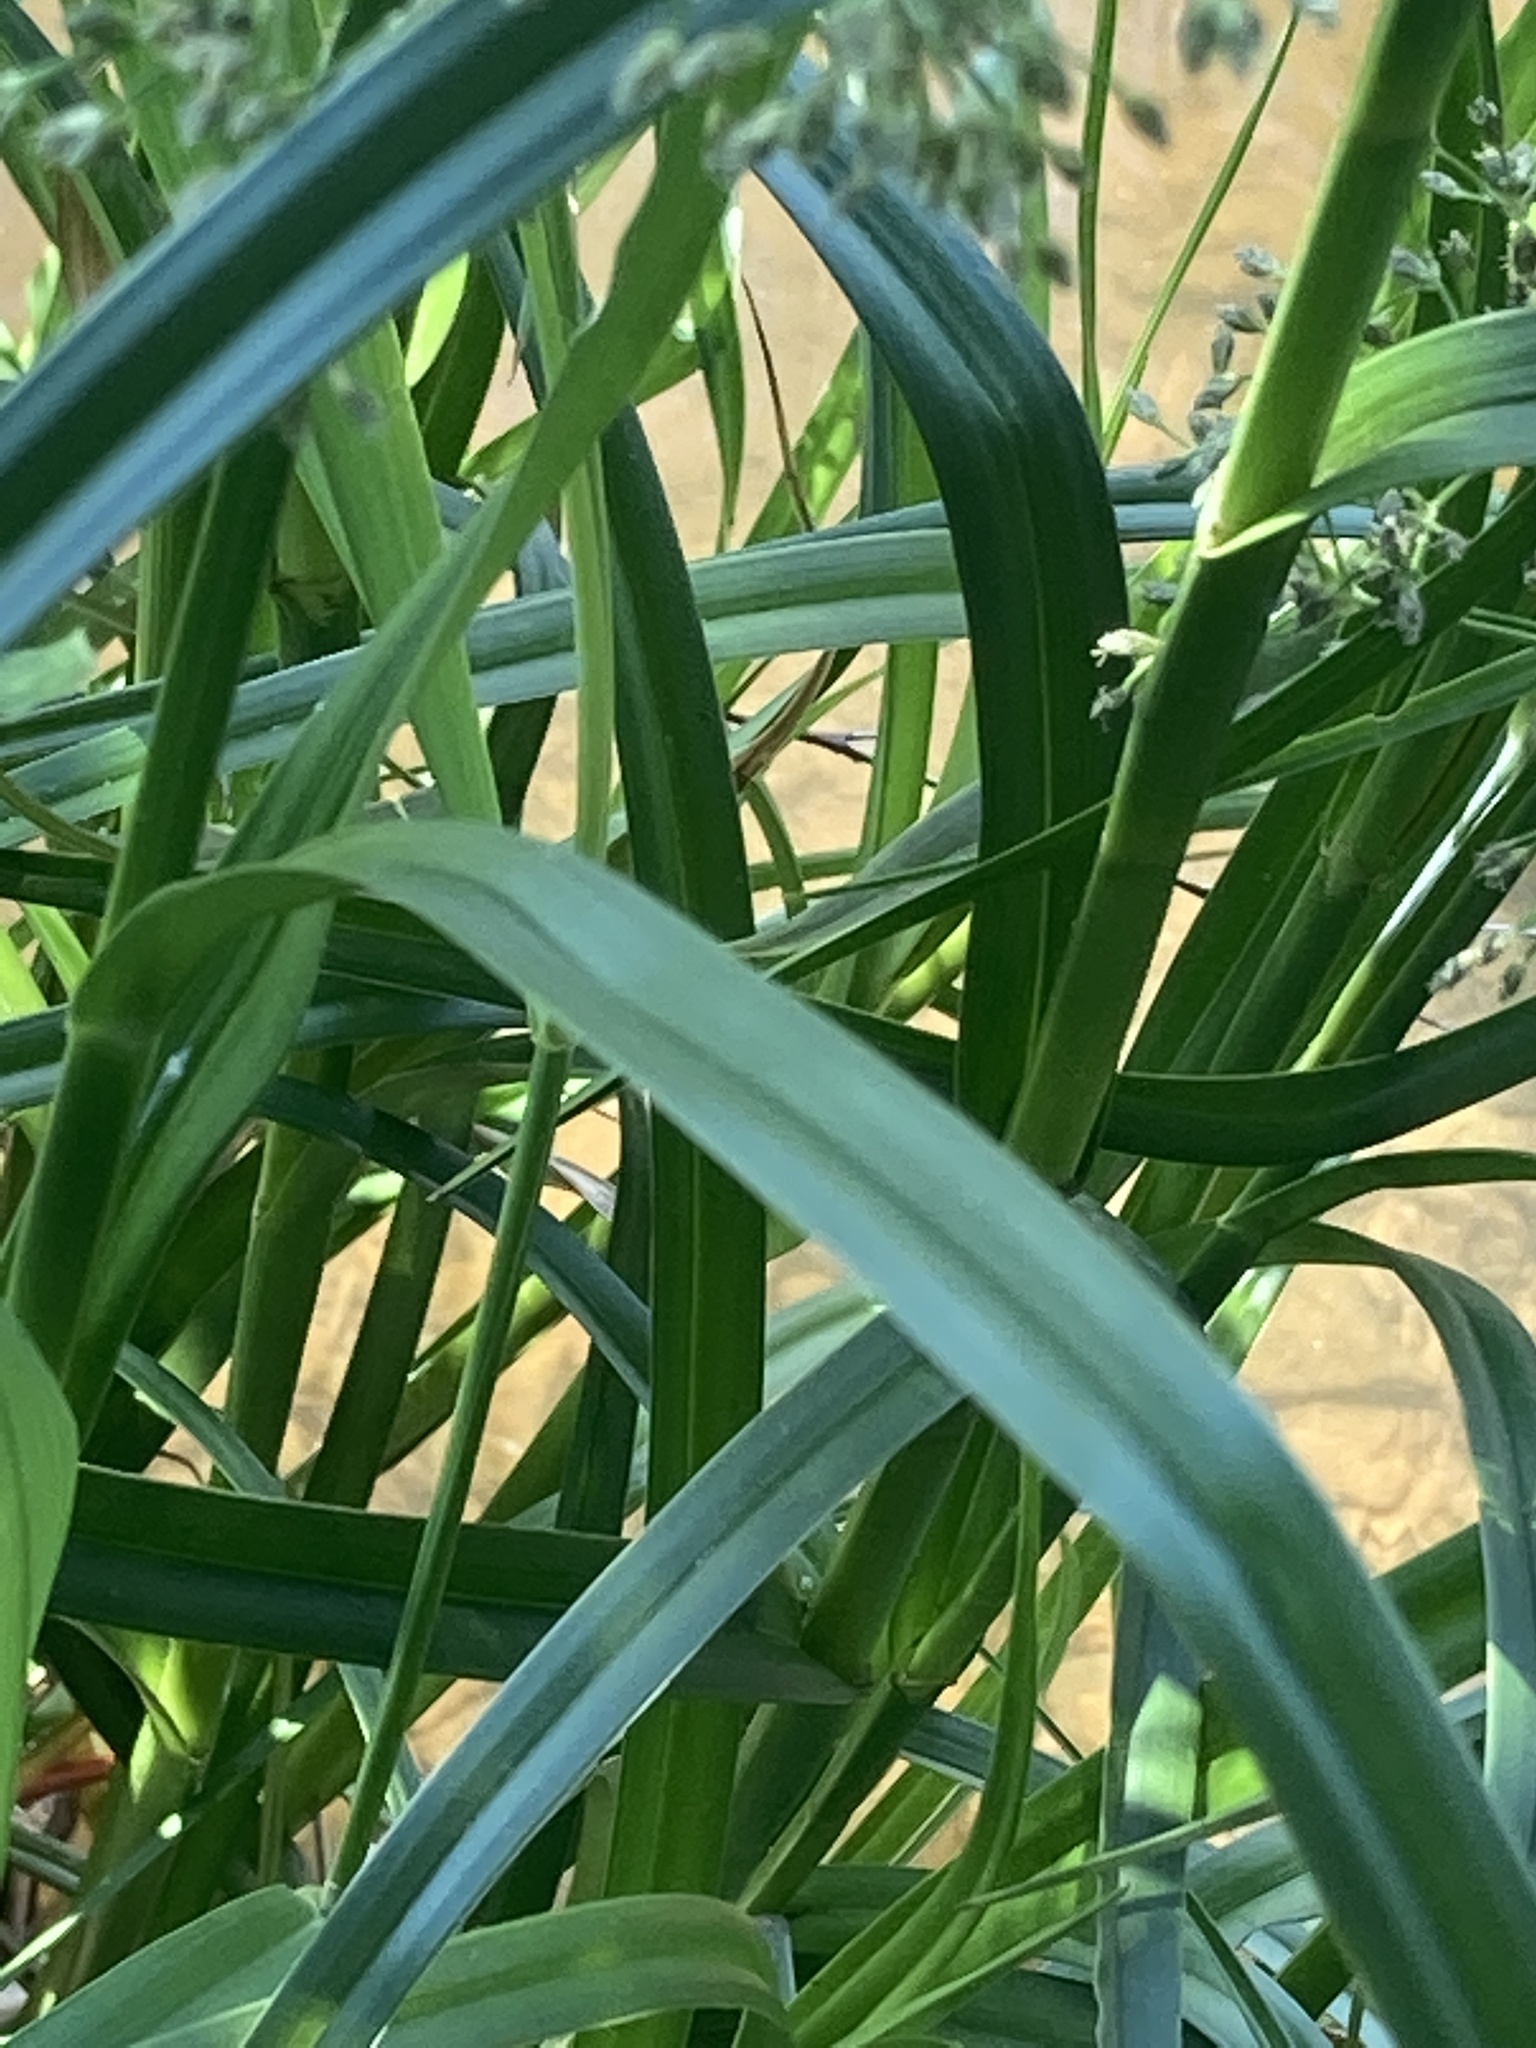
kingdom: Plantae
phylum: Tracheophyta
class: Liliopsida
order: Poales
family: Cyperaceae
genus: Scirpus
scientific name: Scirpus radicans
